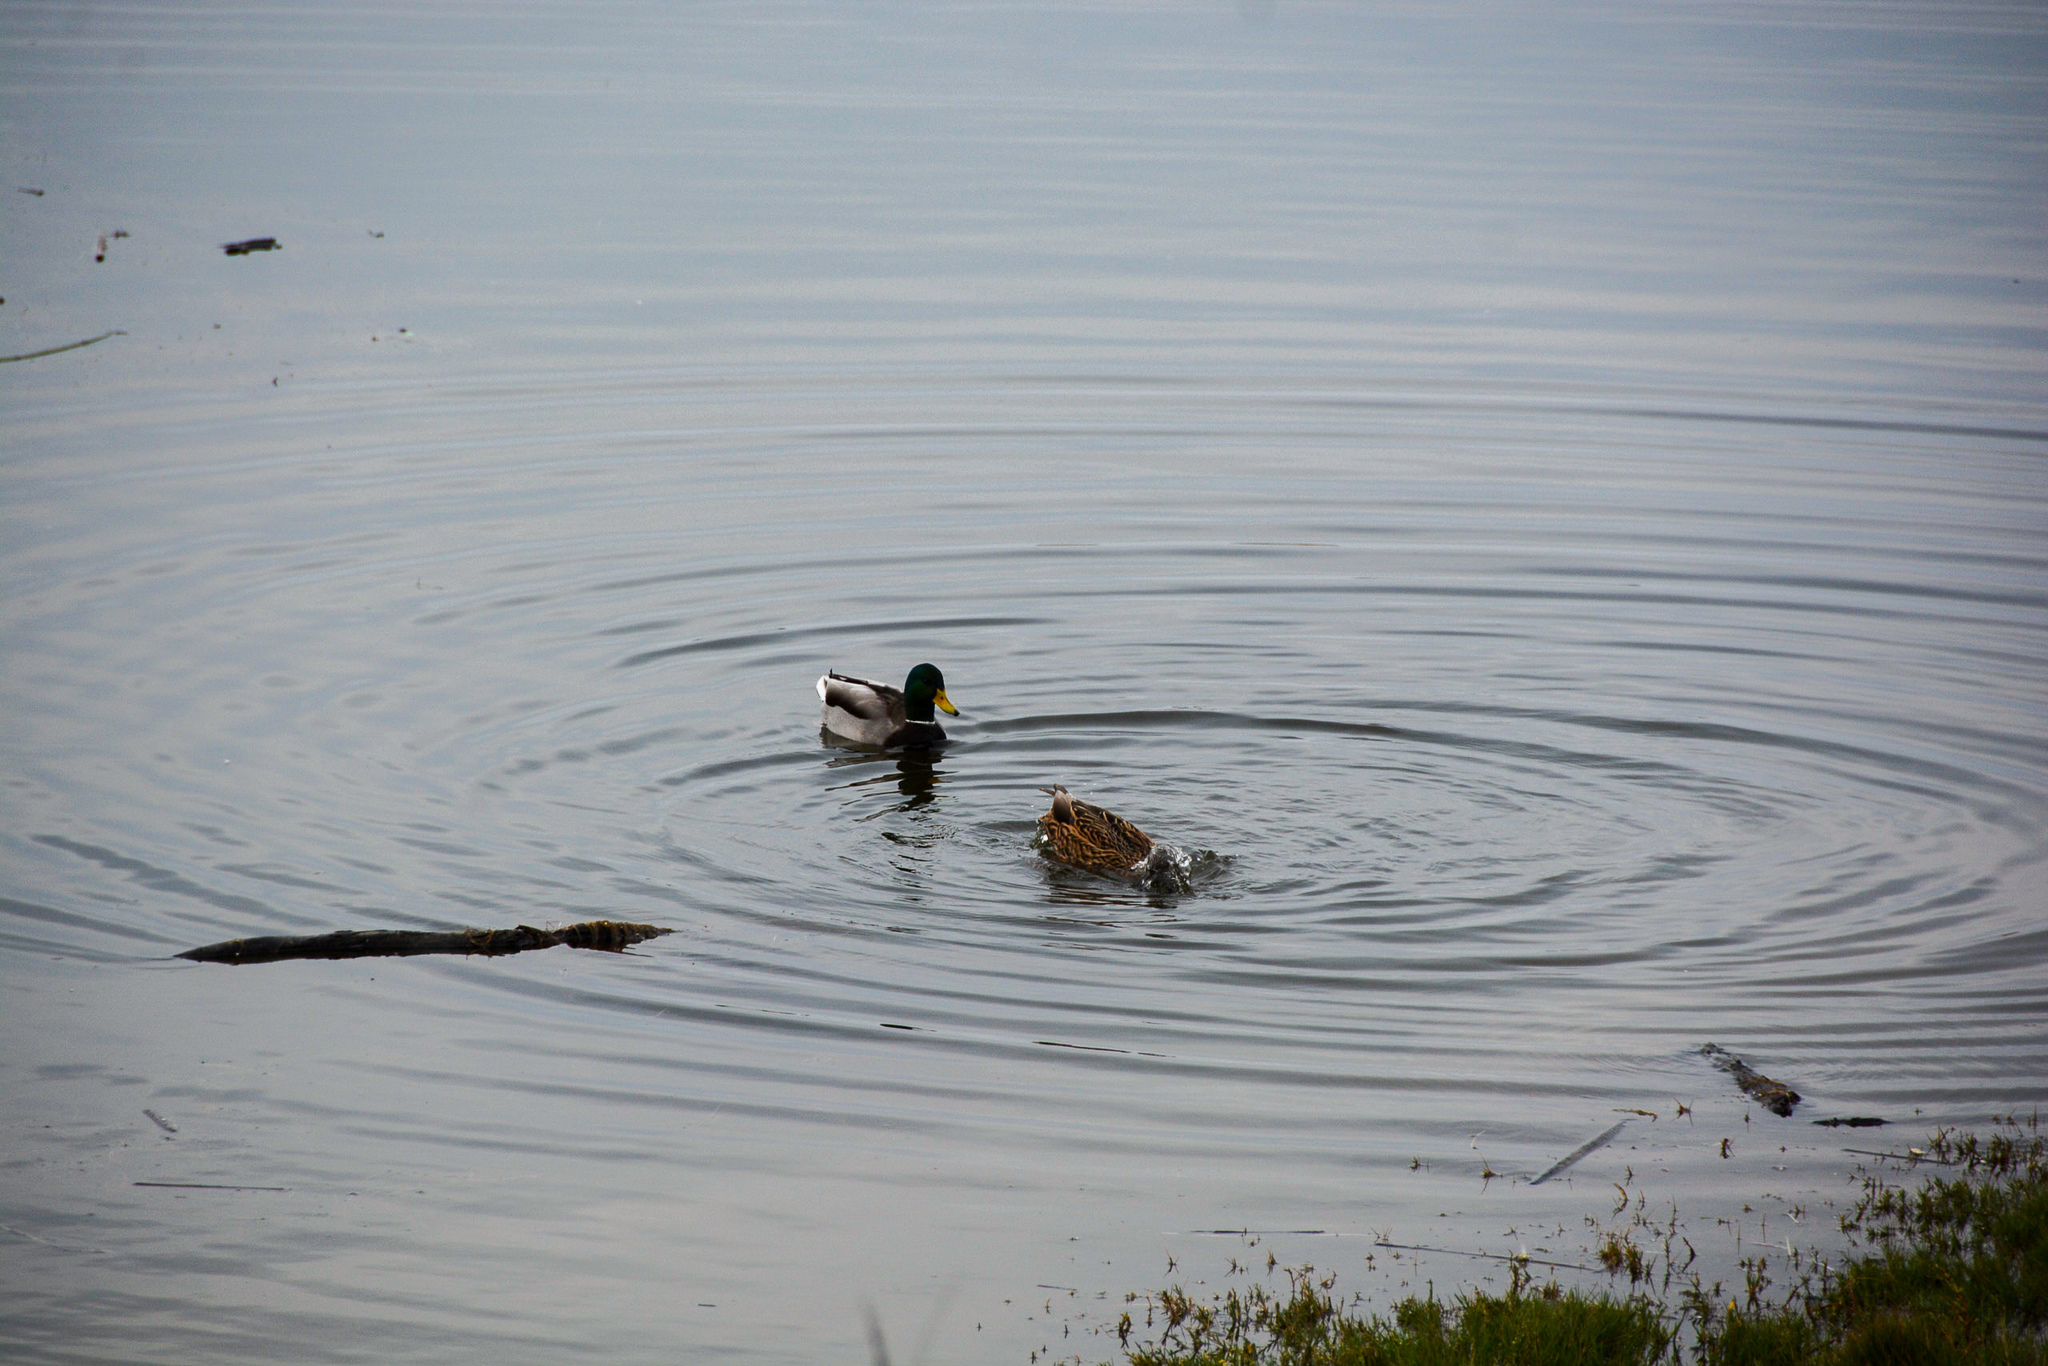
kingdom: Animalia
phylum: Chordata
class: Aves
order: Anseriformes
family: Anatidae
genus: Anas
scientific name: Anas platyrhynchos
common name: Mallard
